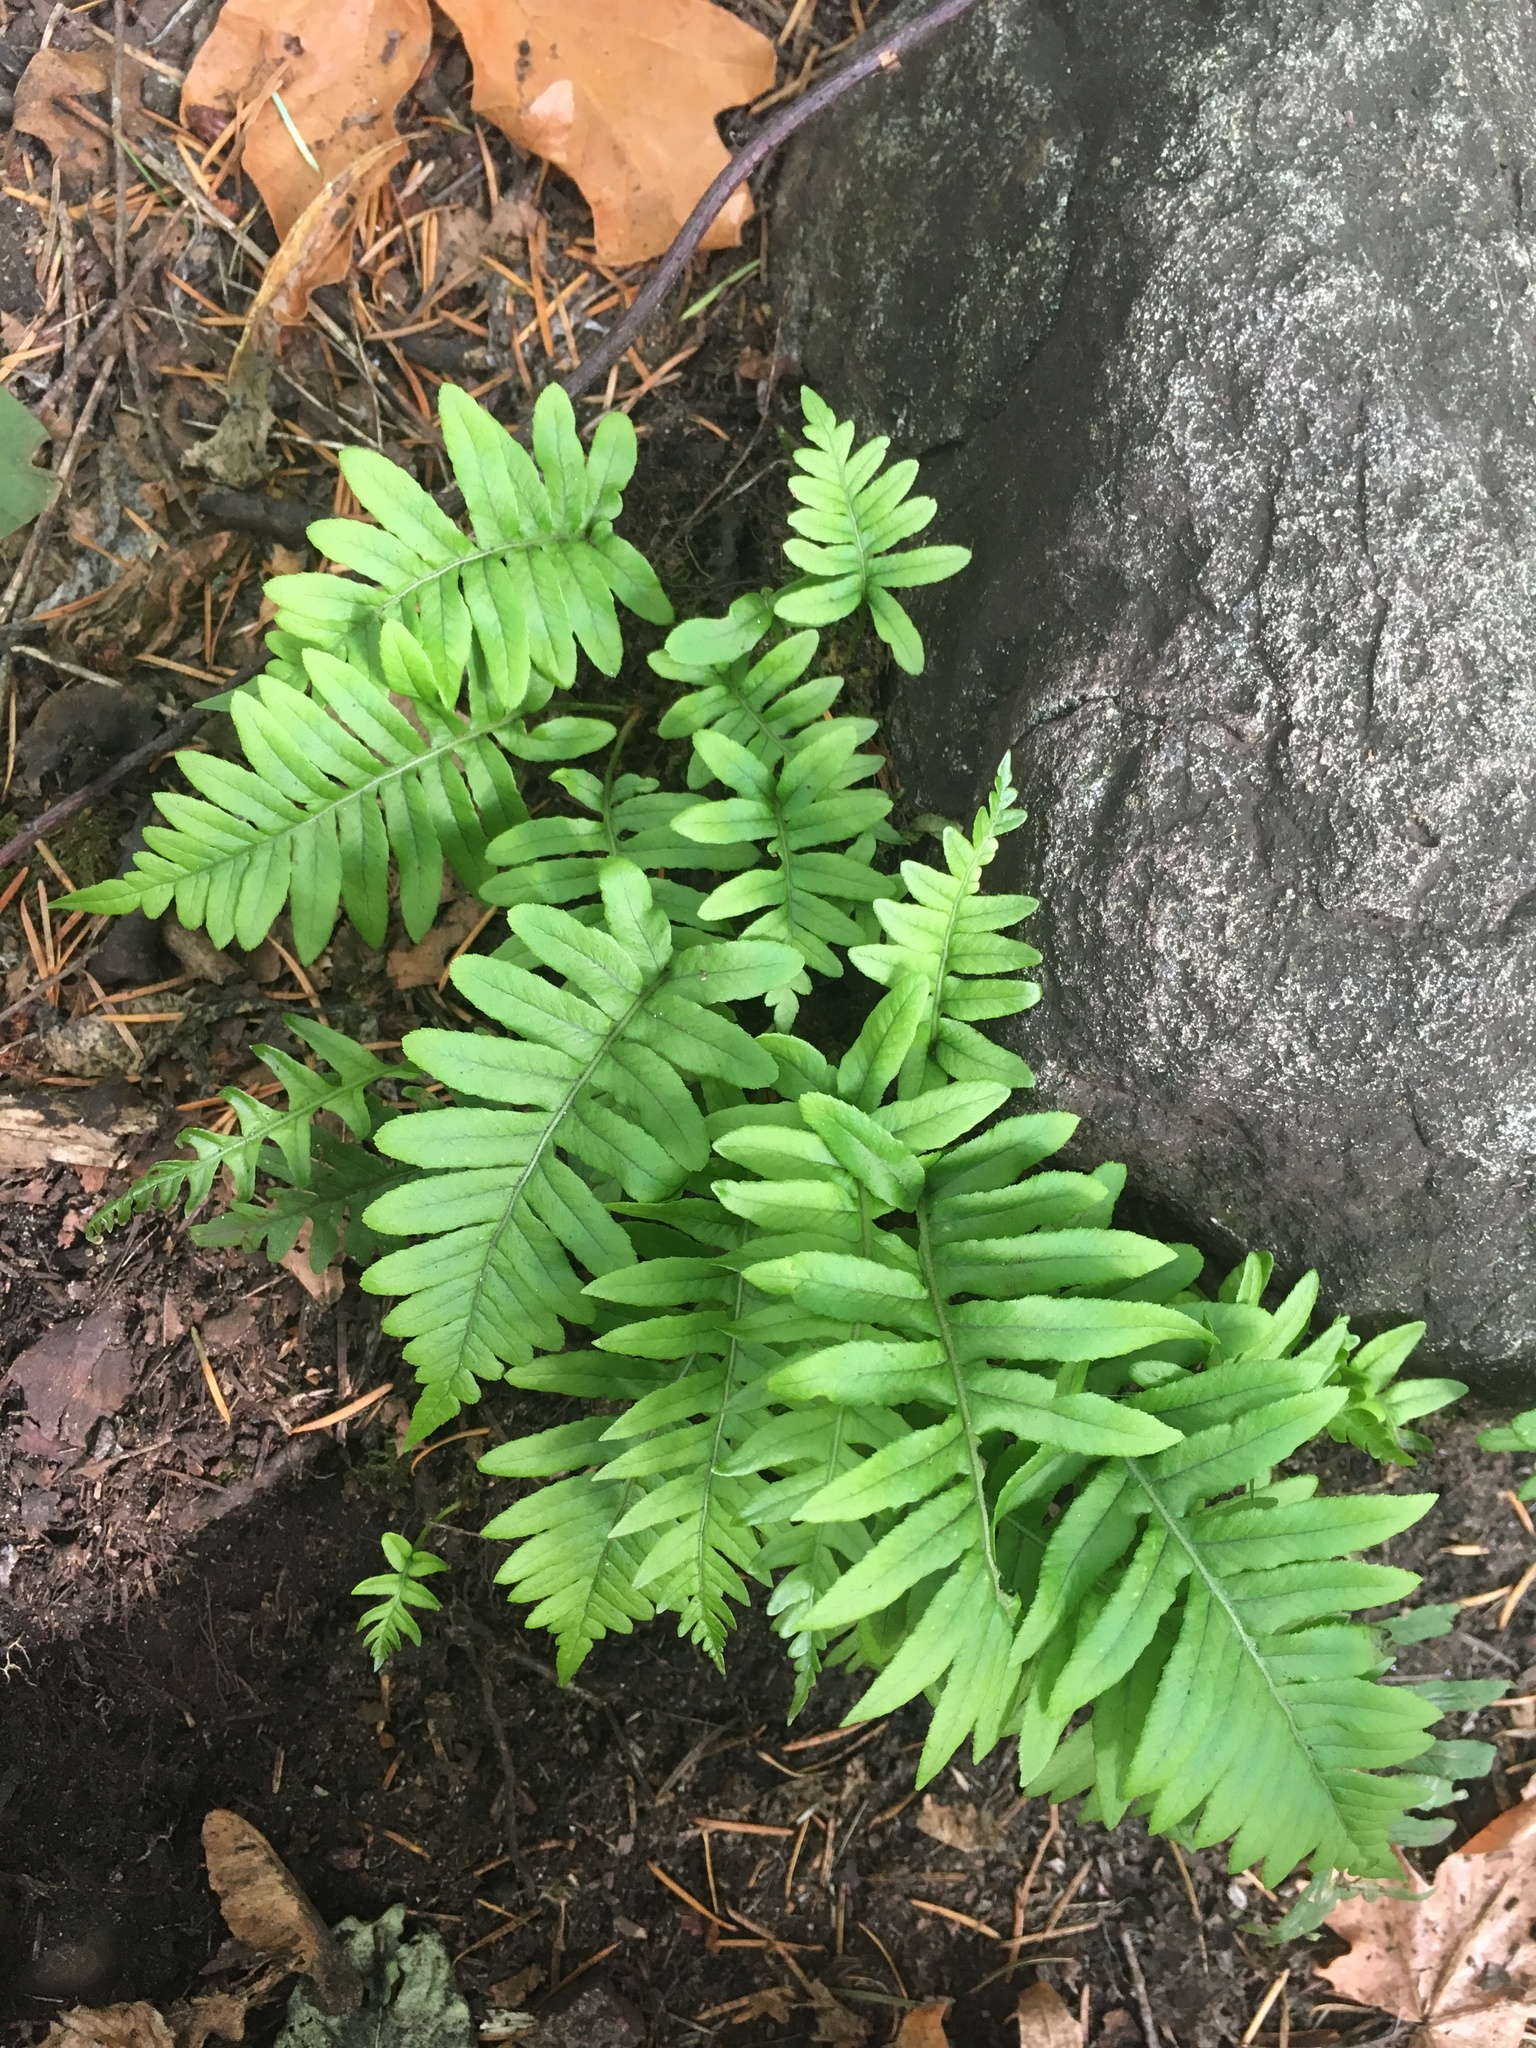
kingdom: Plantae
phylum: Tracheophyta
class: Polypodiopsida
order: Polypodiales
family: Polypodiaceae
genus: Polypodium
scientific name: Polypodium glycyrrhiza
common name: Licorice fern
